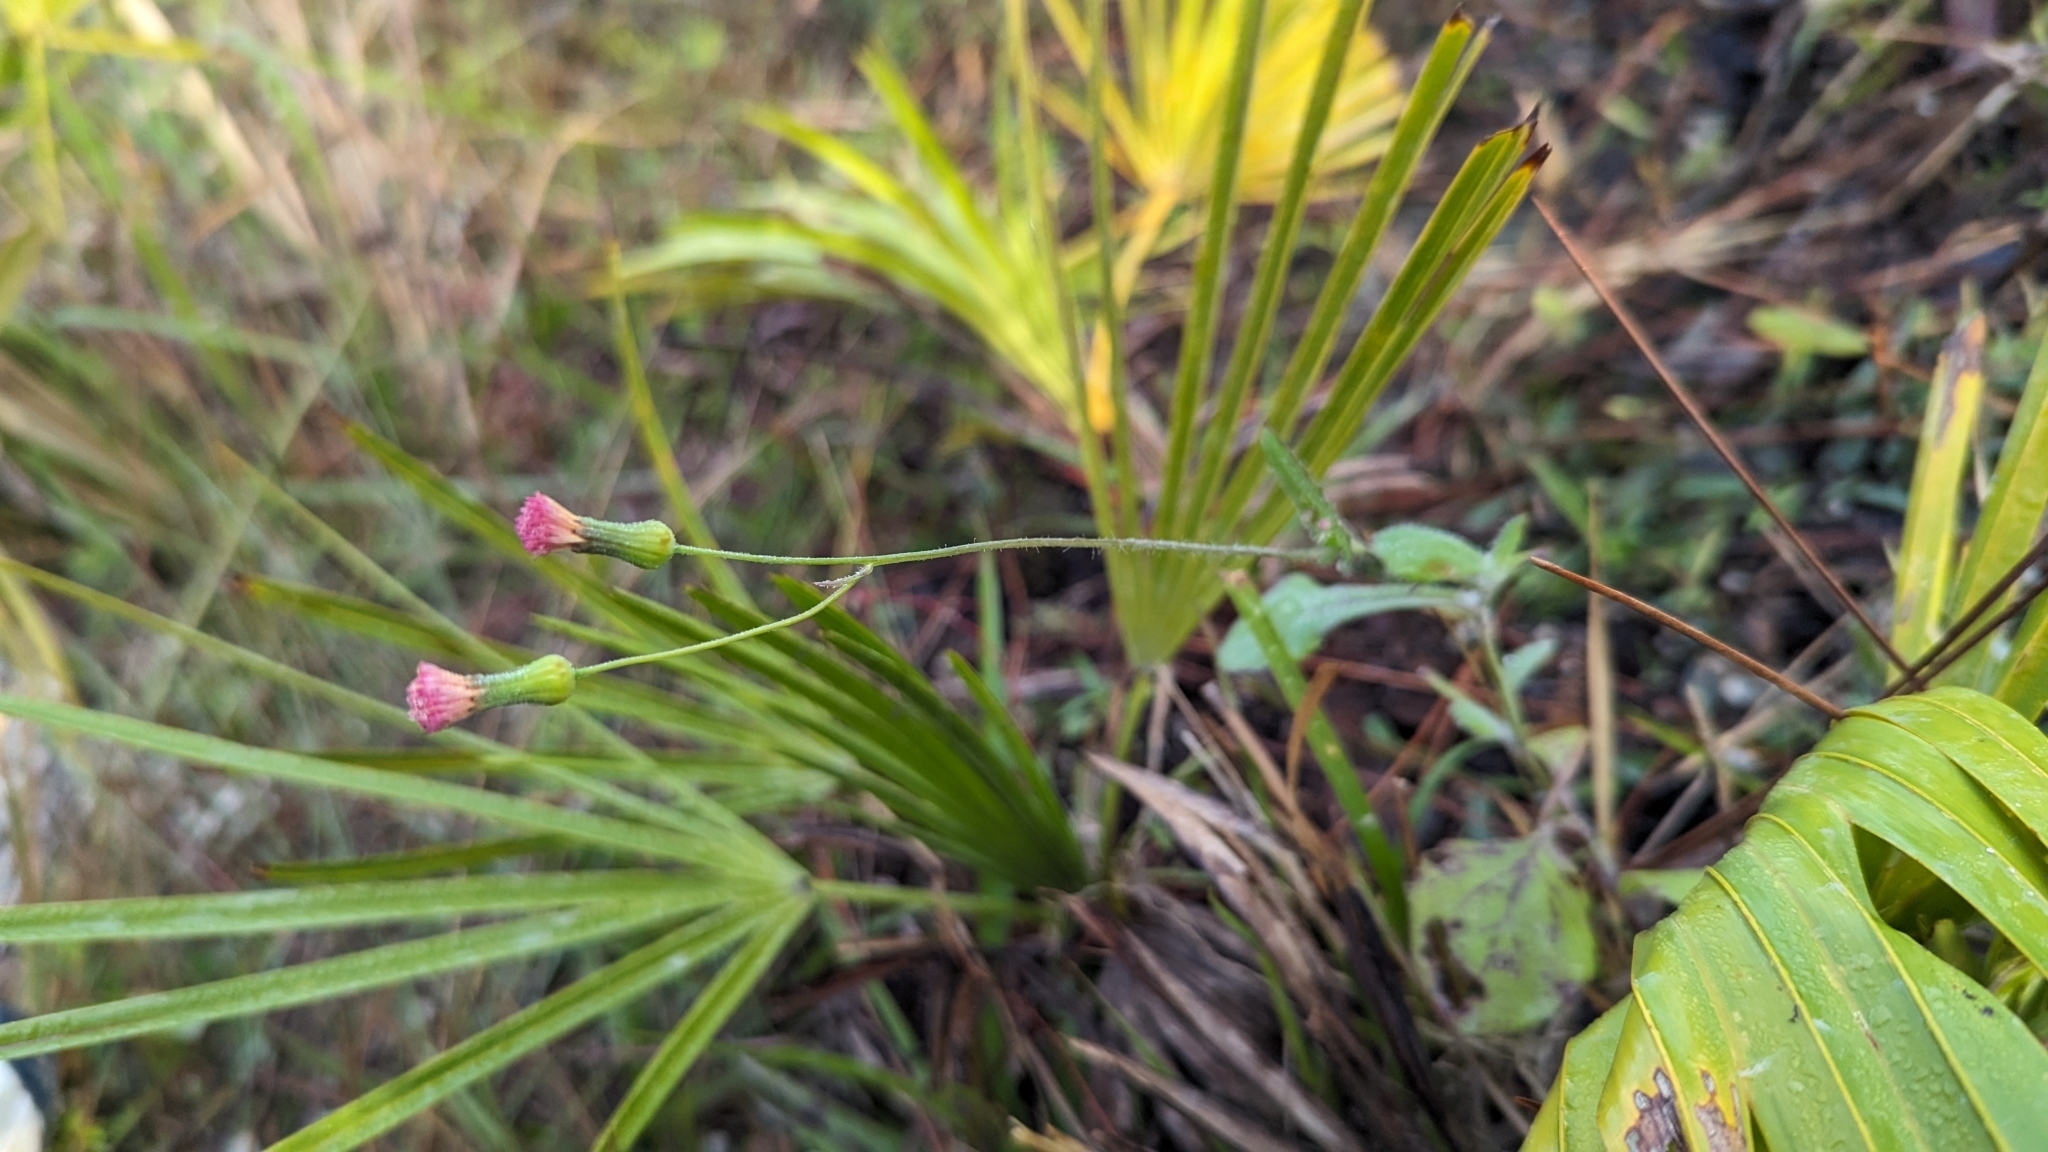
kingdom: Plantae
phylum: Tracheophyta
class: Magnoliopsida
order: Asterales
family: Asteraceae
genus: Emilia
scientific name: Emilia sonchifolia
